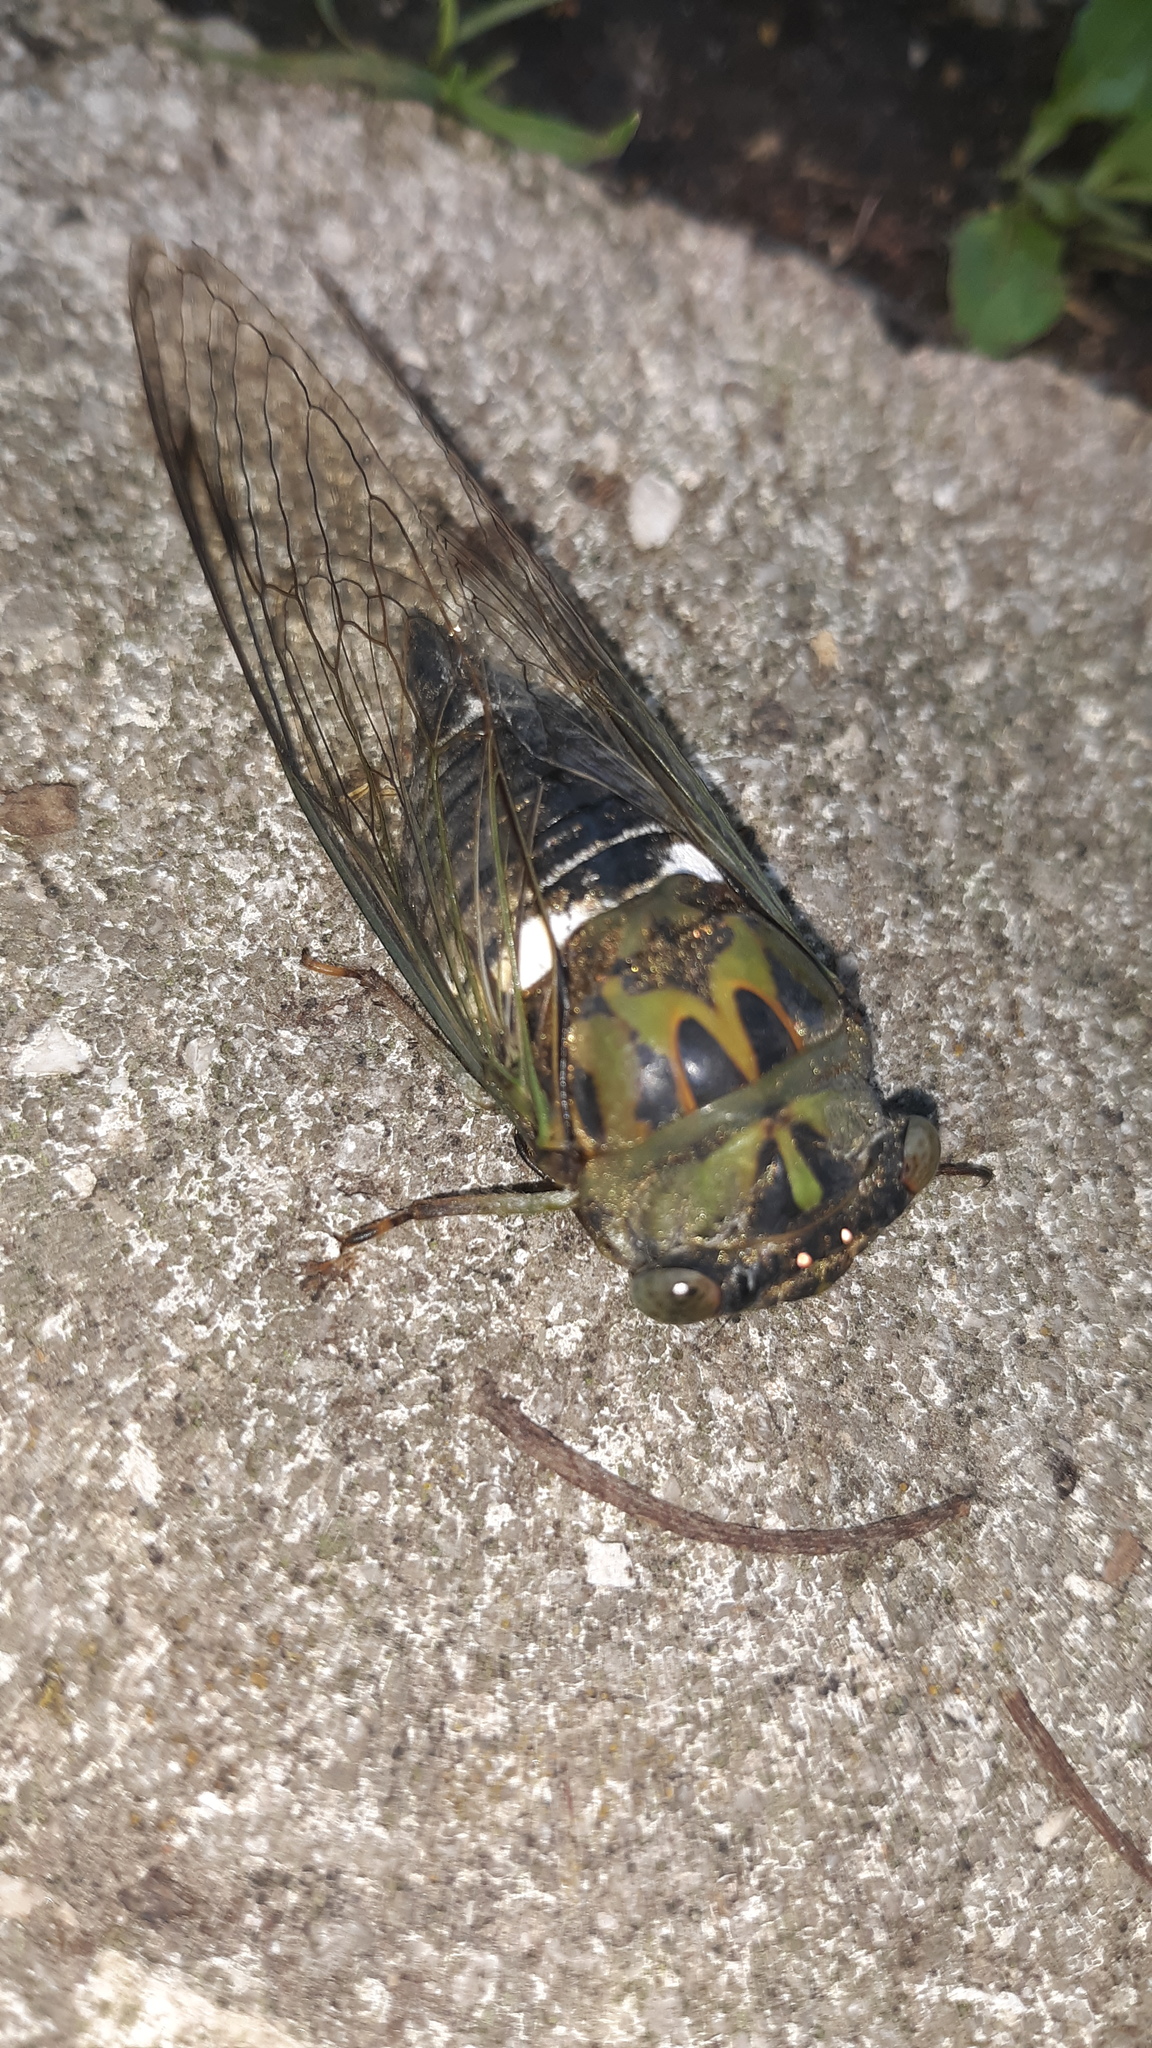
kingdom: Animalia
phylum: Arthropoda
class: Insecta
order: Hemiptera
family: Cicadidae
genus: Neotibicen
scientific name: Neotibicen pruinosus
